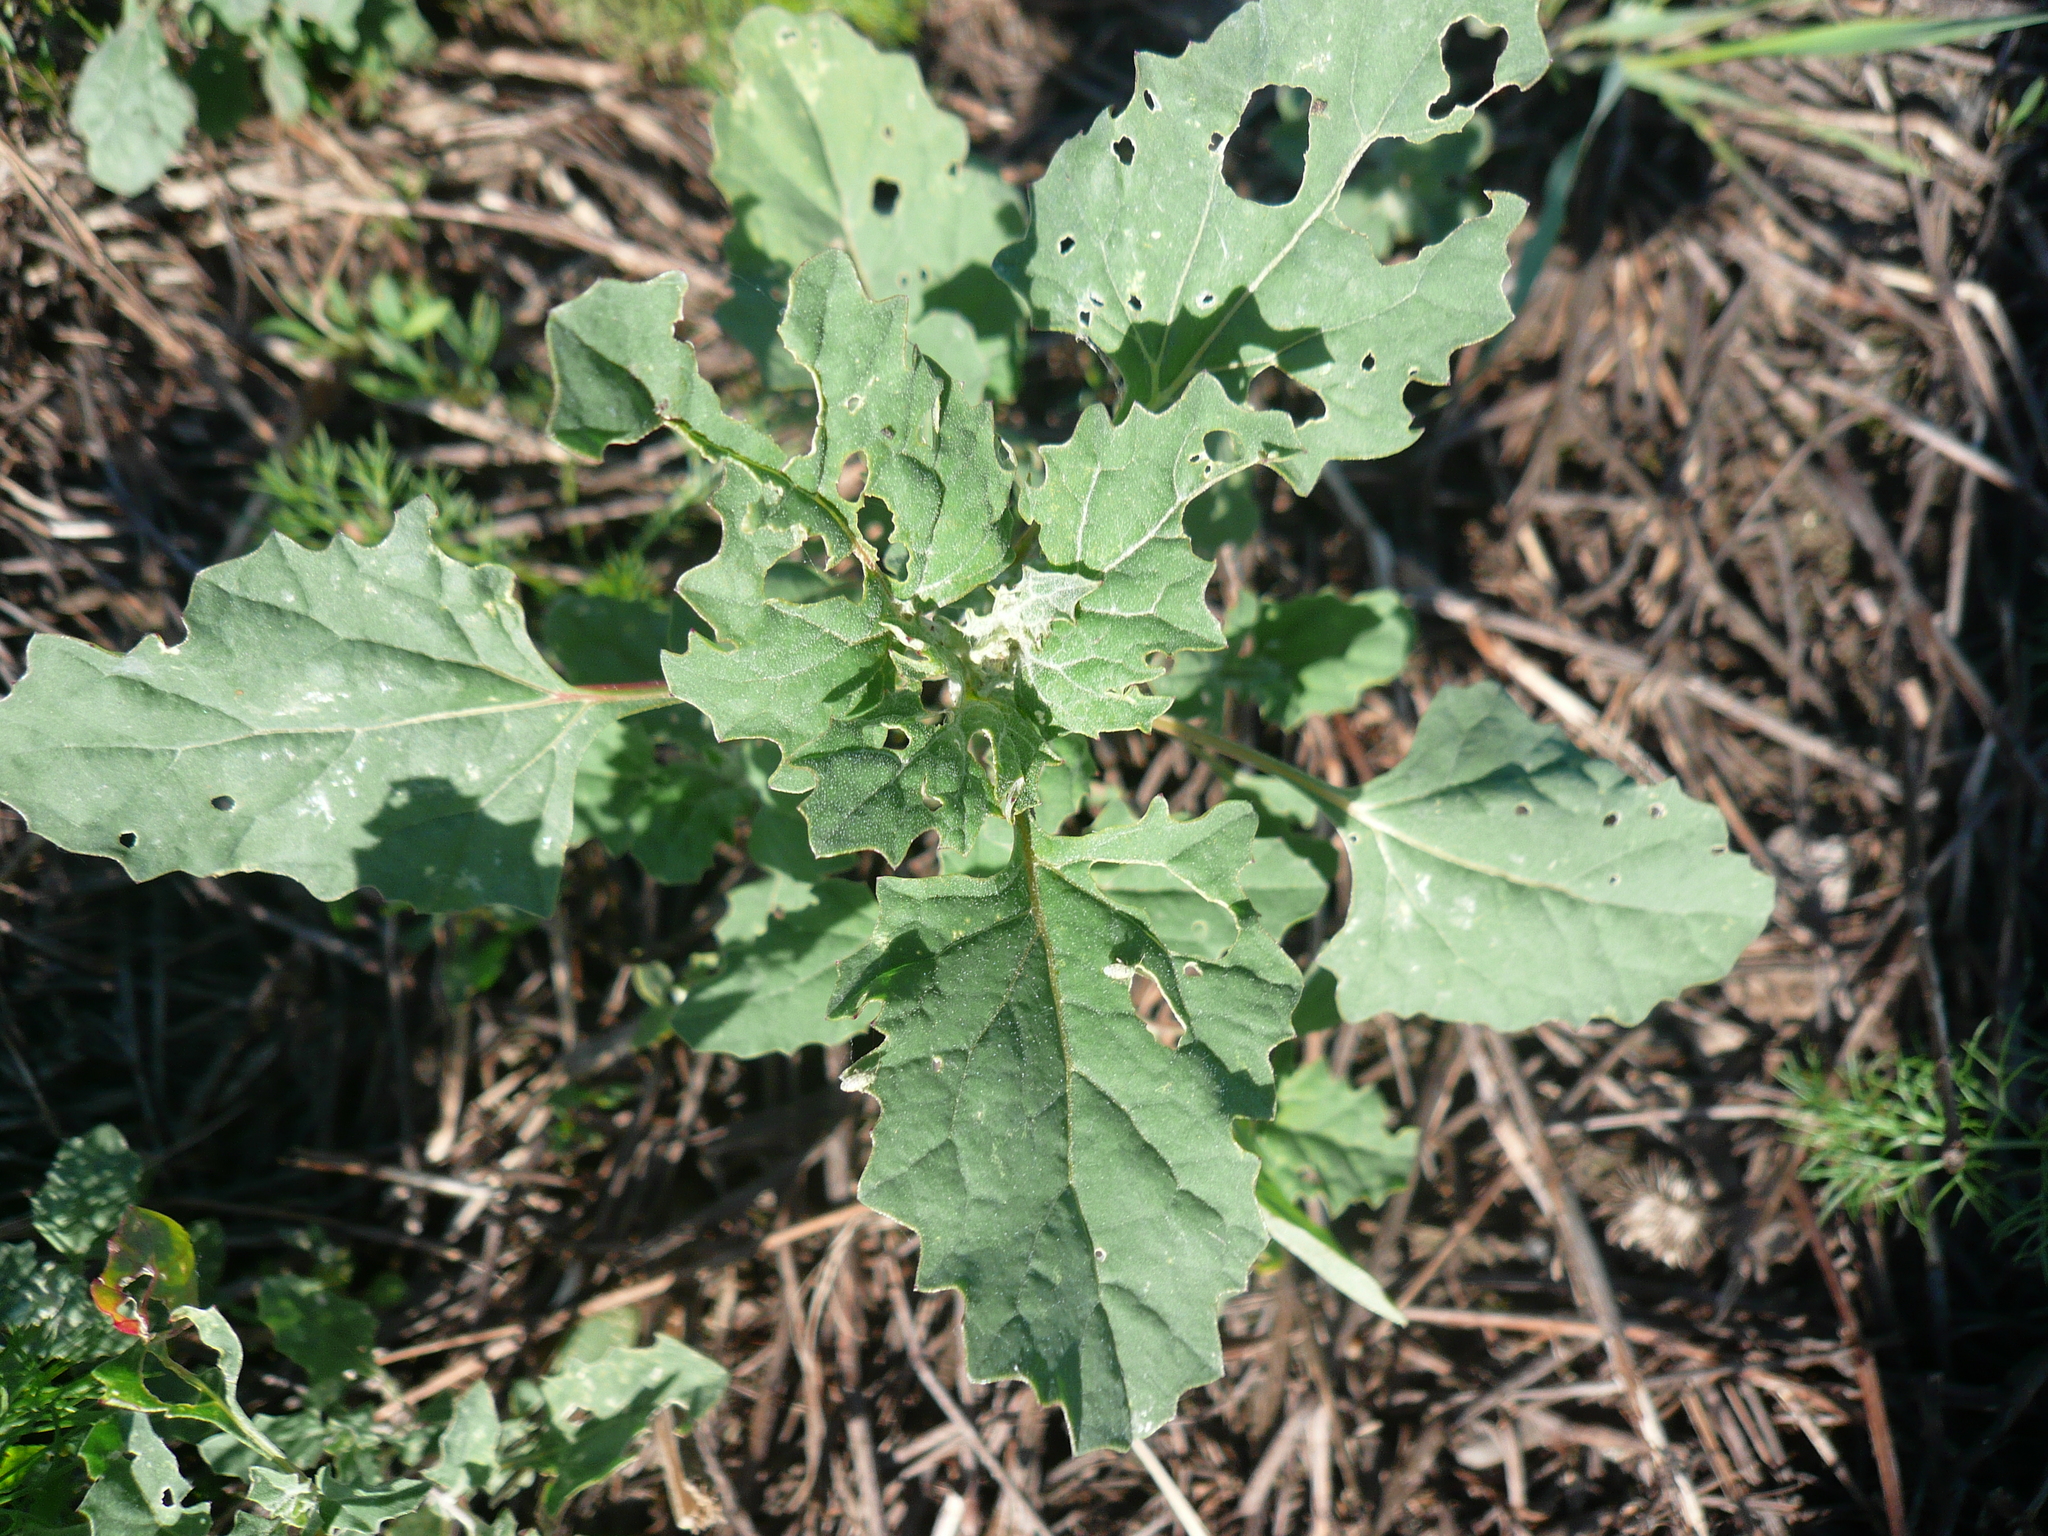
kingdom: Plantae
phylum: Tracheophyta
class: Magnoliopsida
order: Caryophyllales
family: Amaranthaceae
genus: Atriplex
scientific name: Atriplex tatarica
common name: Tatarian orache
